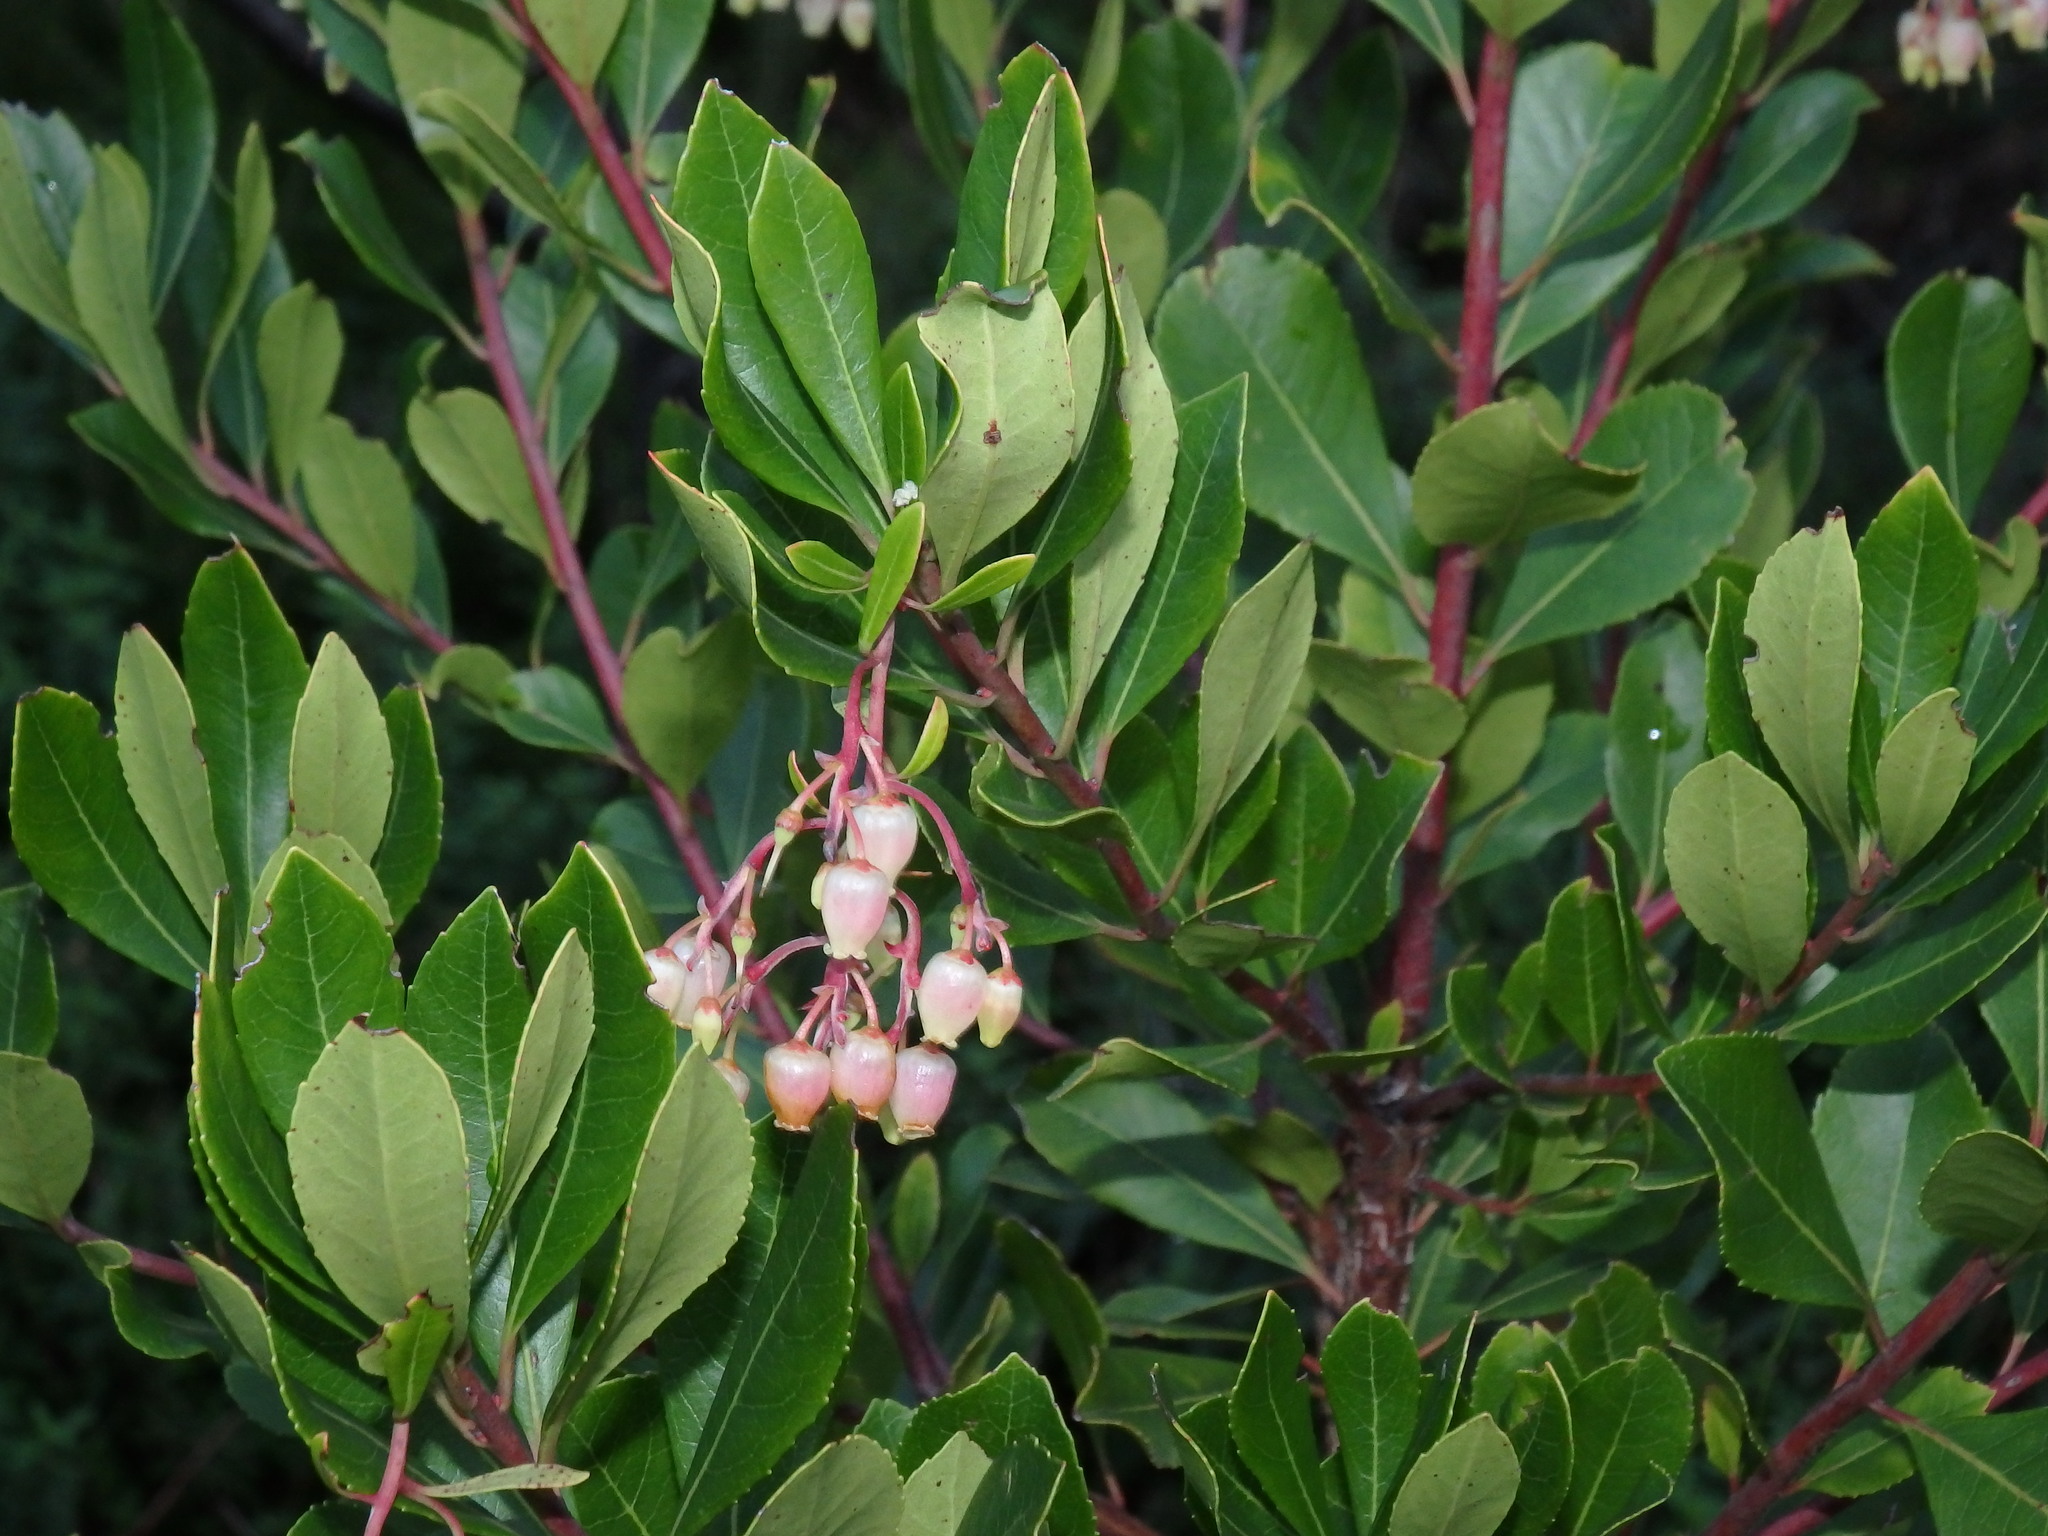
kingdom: Plantae
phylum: Tracheophyta
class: Magnoliopsida
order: Ericales
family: Ericaceae
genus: Arbutus
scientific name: Arbutus unedo
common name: Strawberry-tree
